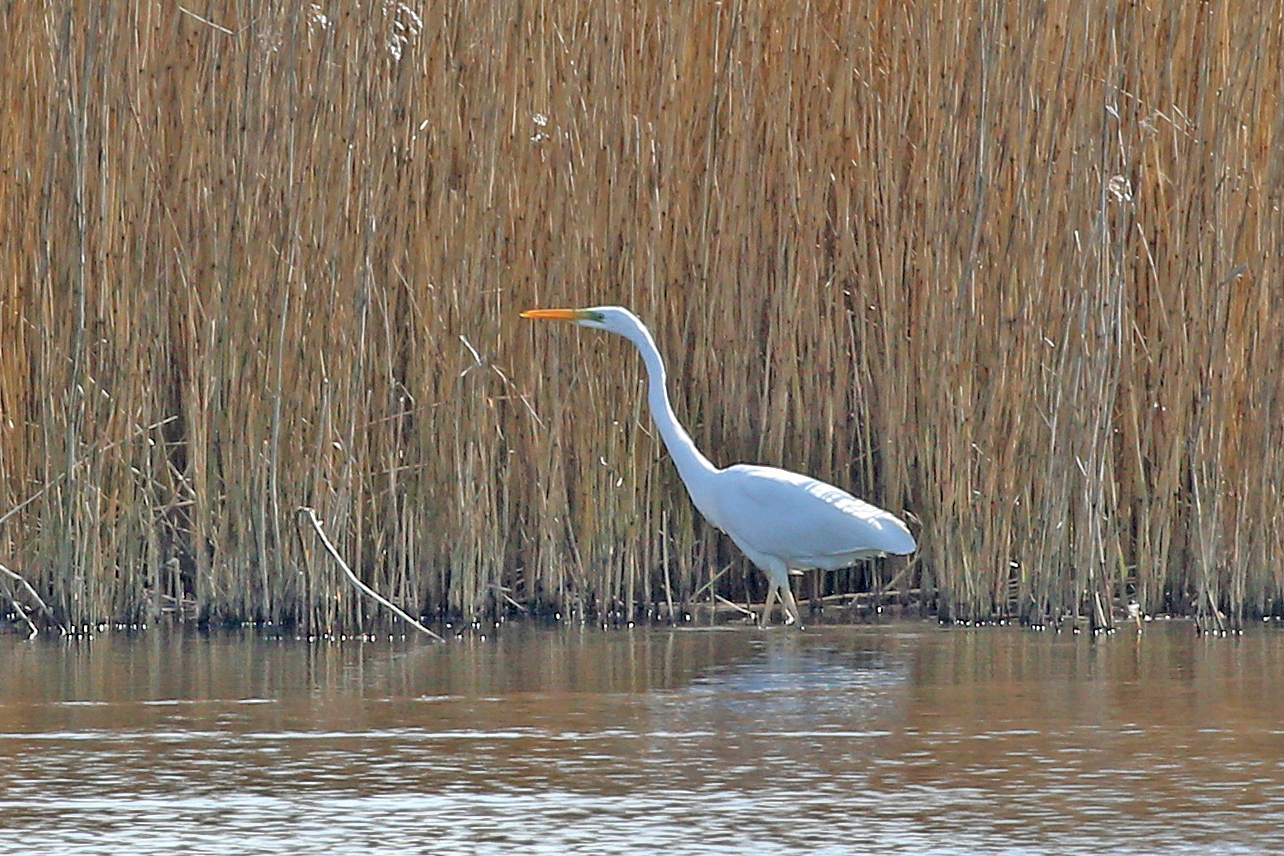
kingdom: Animalia
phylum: Chordata
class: Aves
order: Pelecaniformes
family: Ardeidae
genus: Ardea
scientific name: Ardea alba
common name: Great egret
